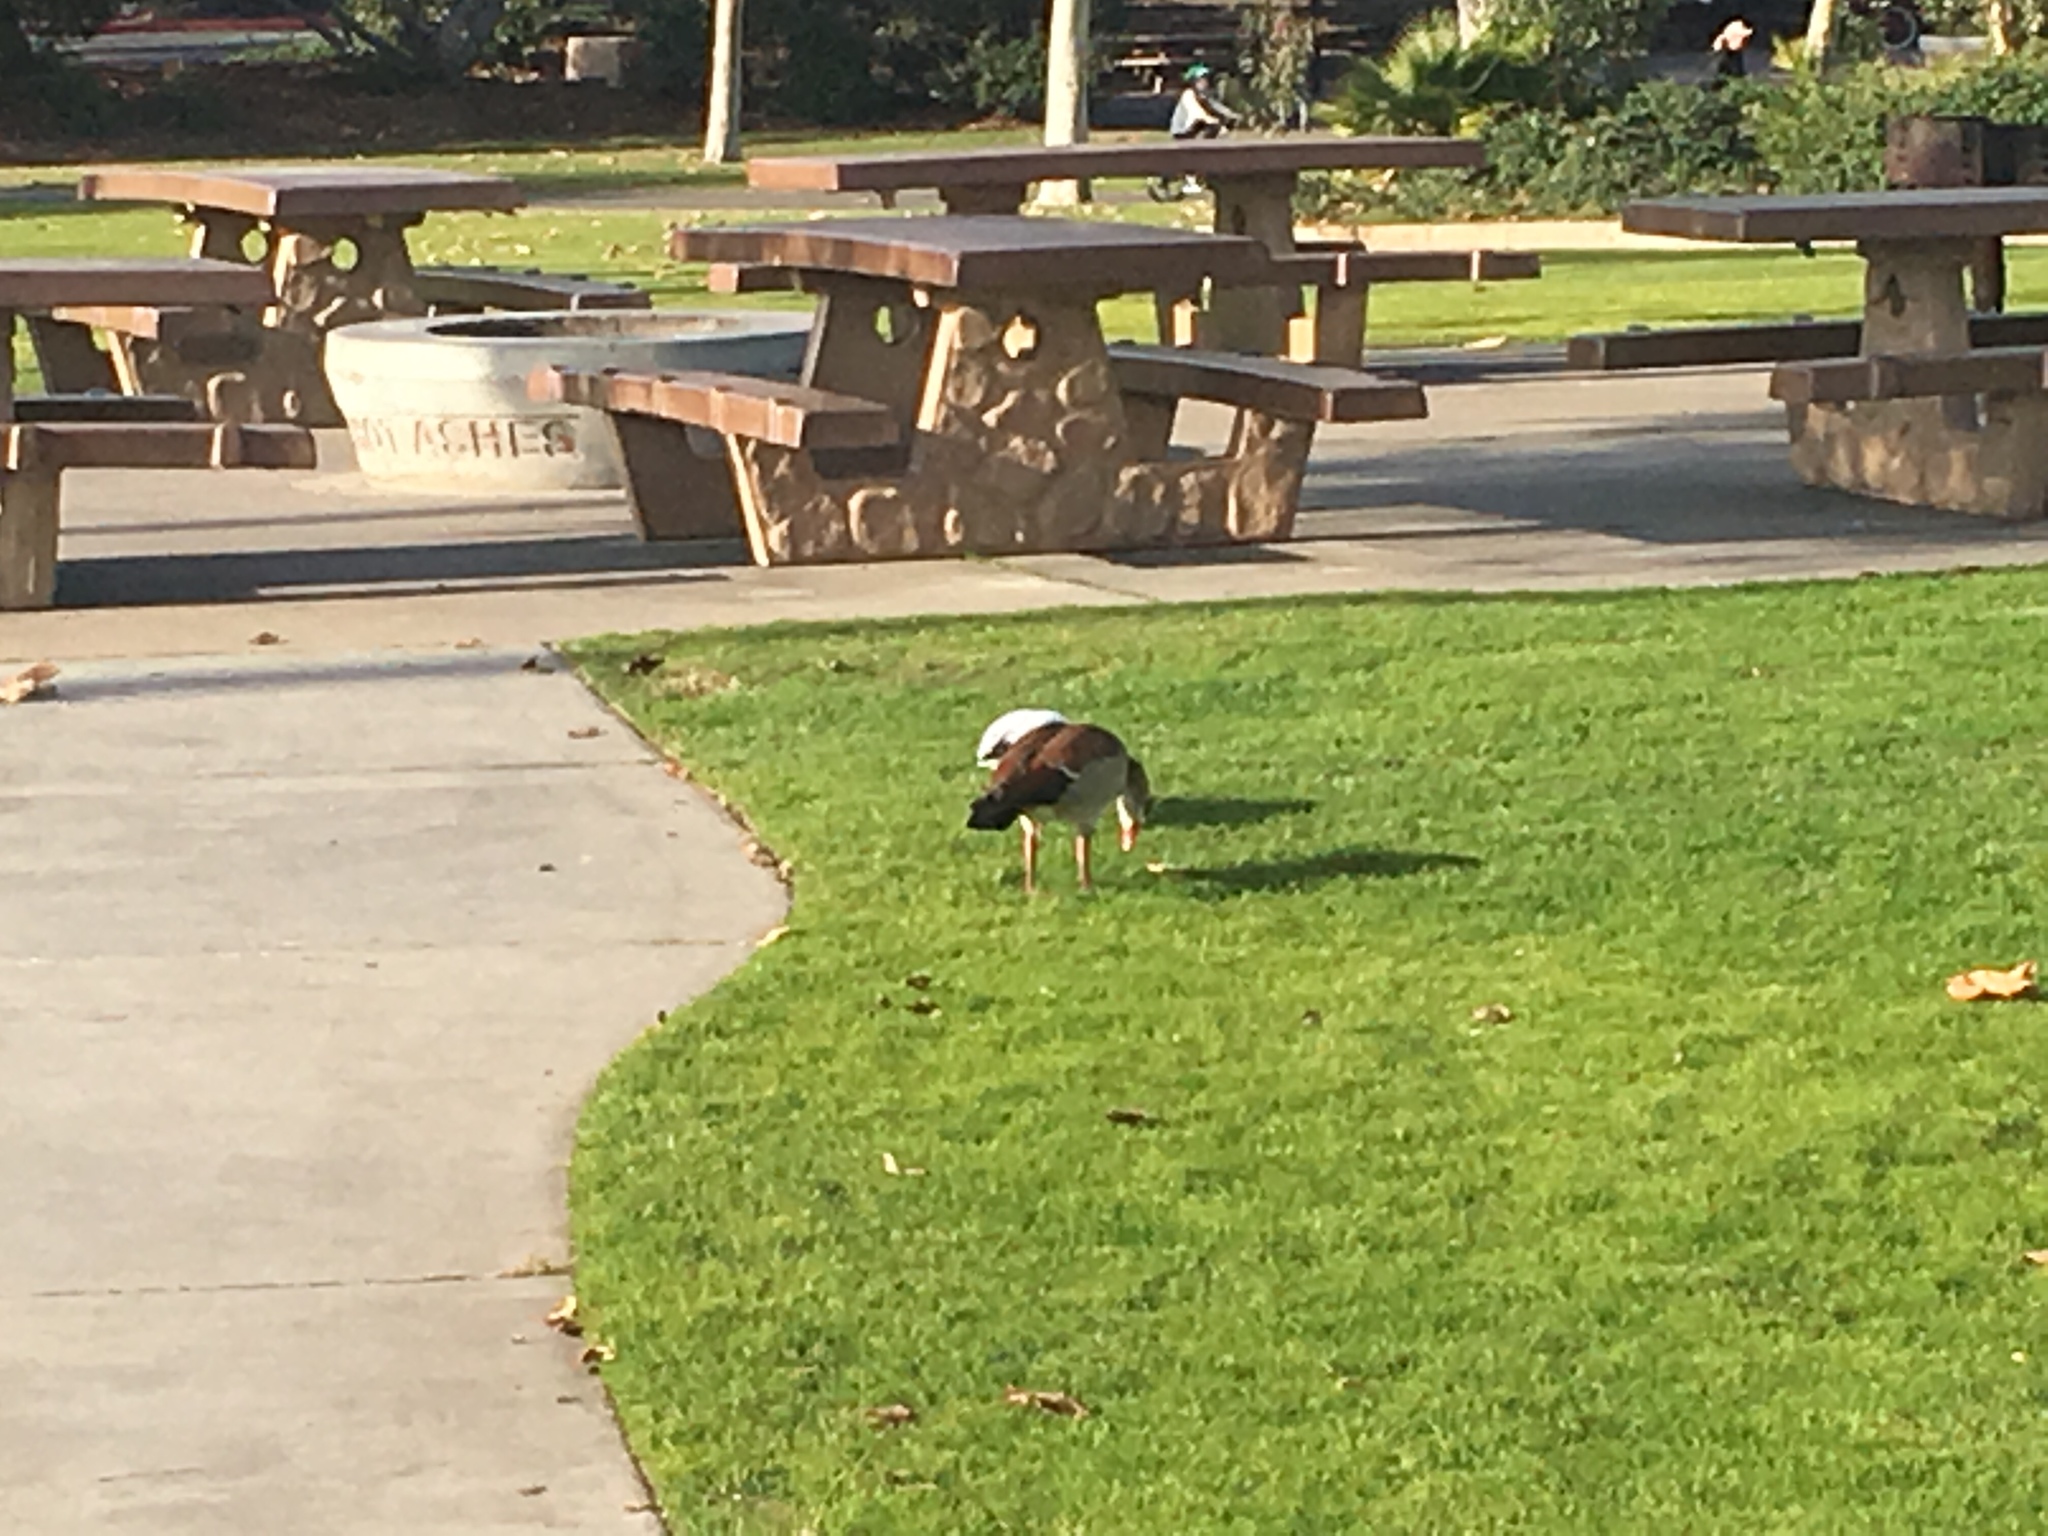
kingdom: Animalia
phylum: Chordata
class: Aves
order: Anseriformes
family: Anatidae
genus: Alopochen
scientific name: Alopochen aegyptiaca
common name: Egyptian goose
